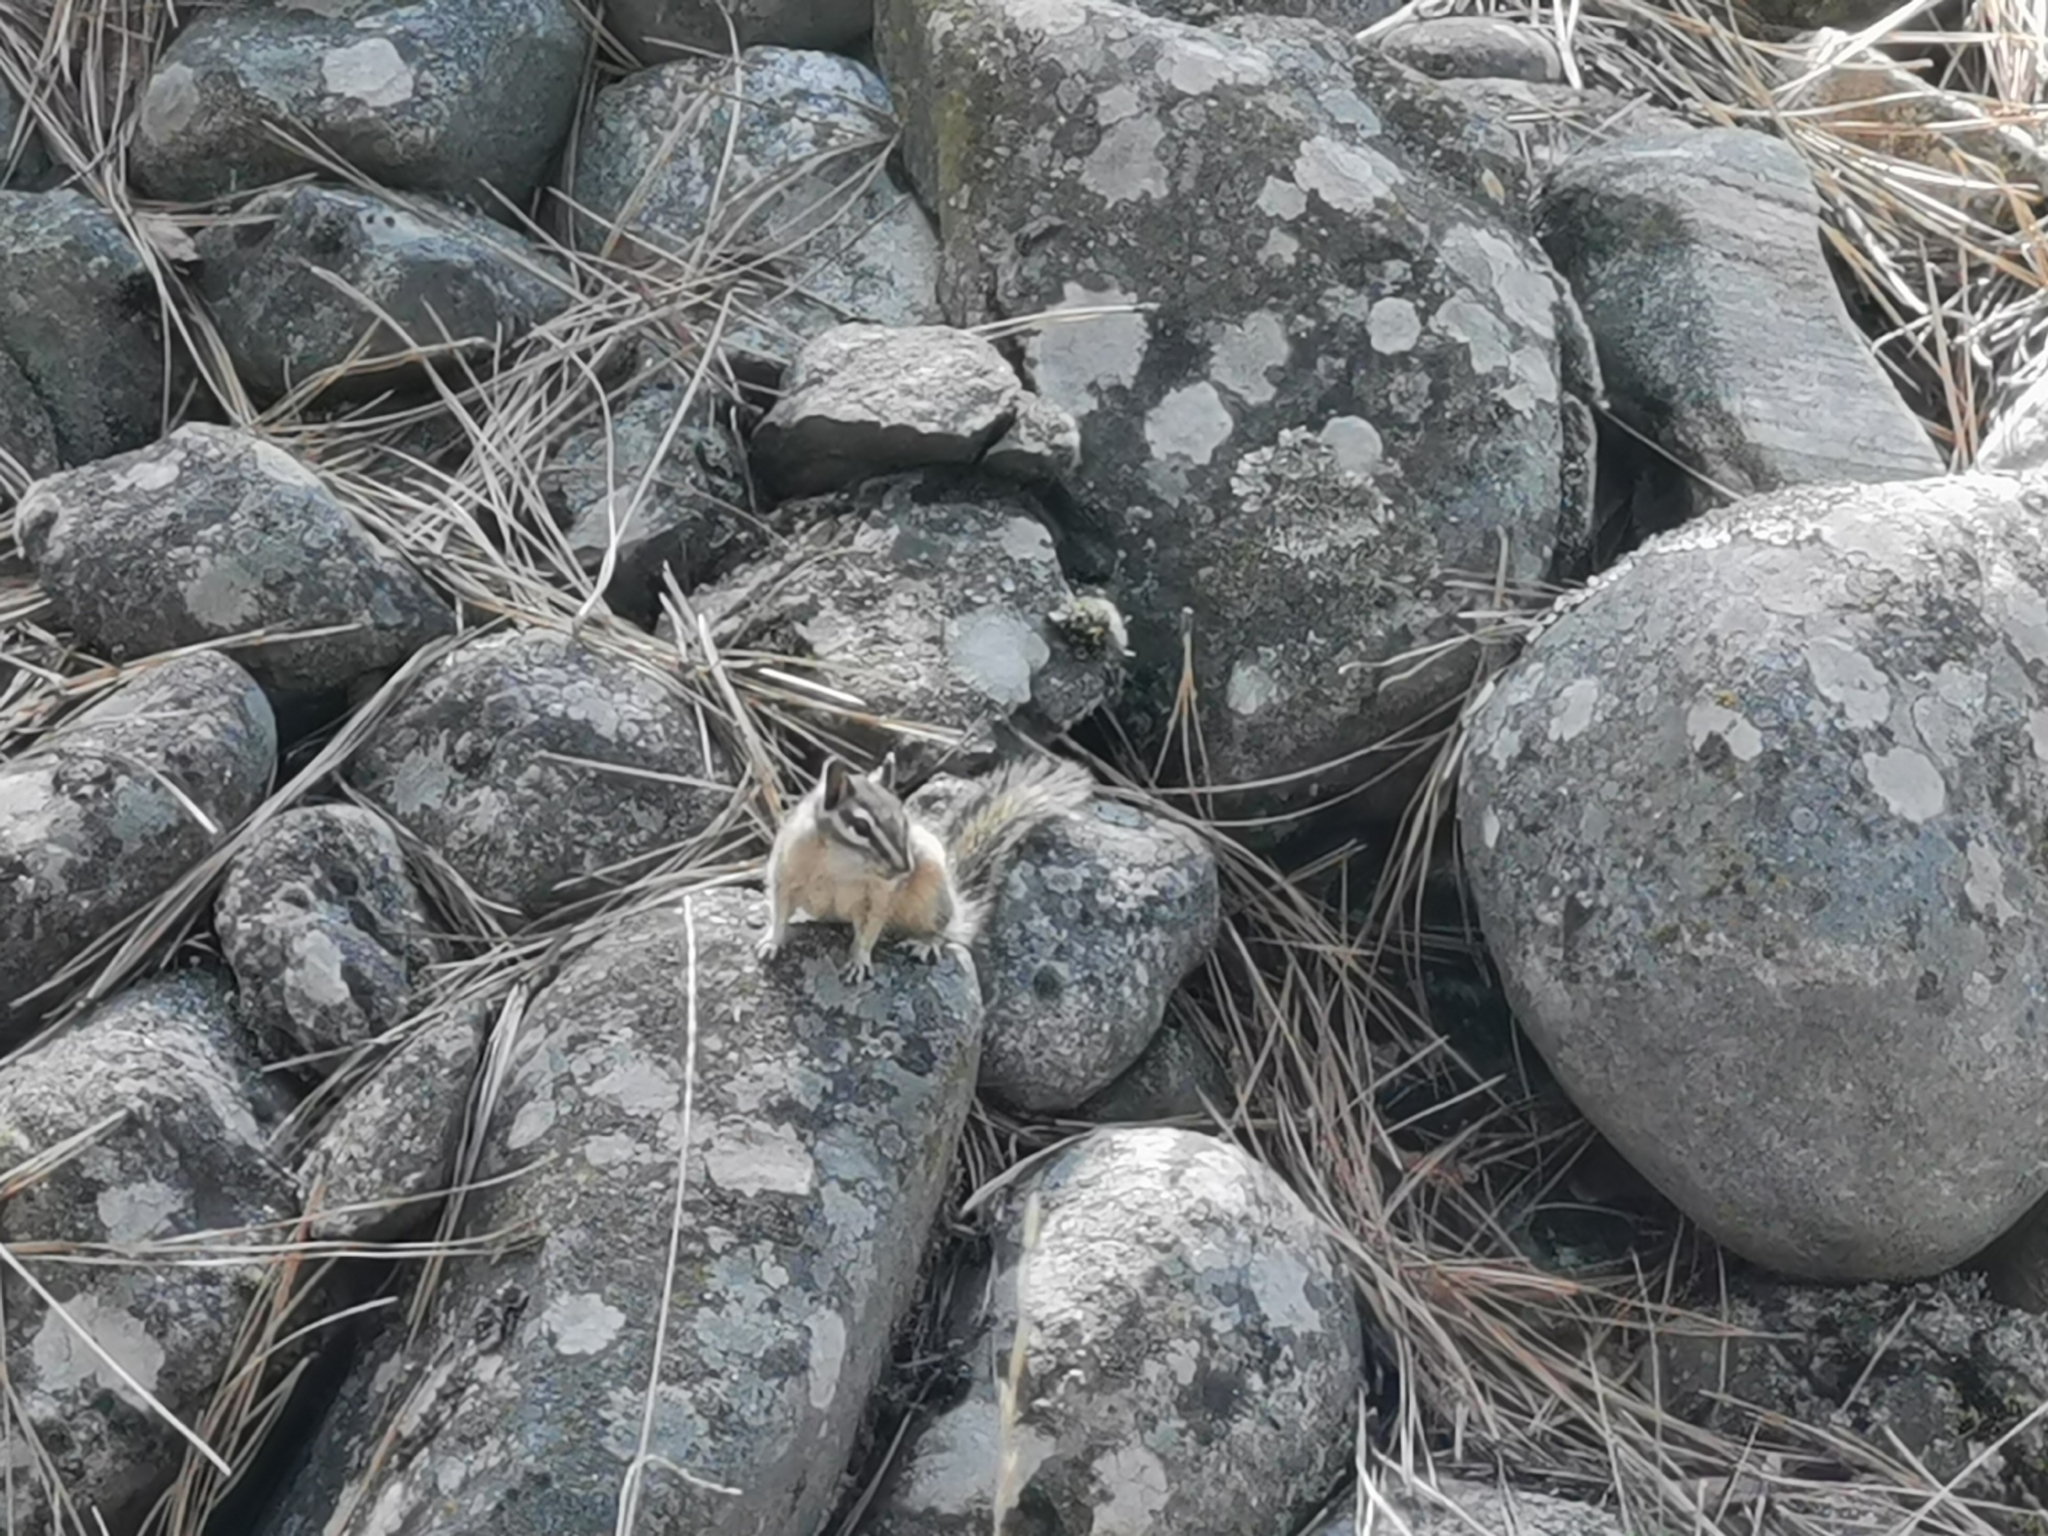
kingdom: Animalia
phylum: Chordata
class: Mammalia
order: Rodentia
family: Sciuridae
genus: Tamias
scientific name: Tamias amoenus
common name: Yellow-pine chipmunk
